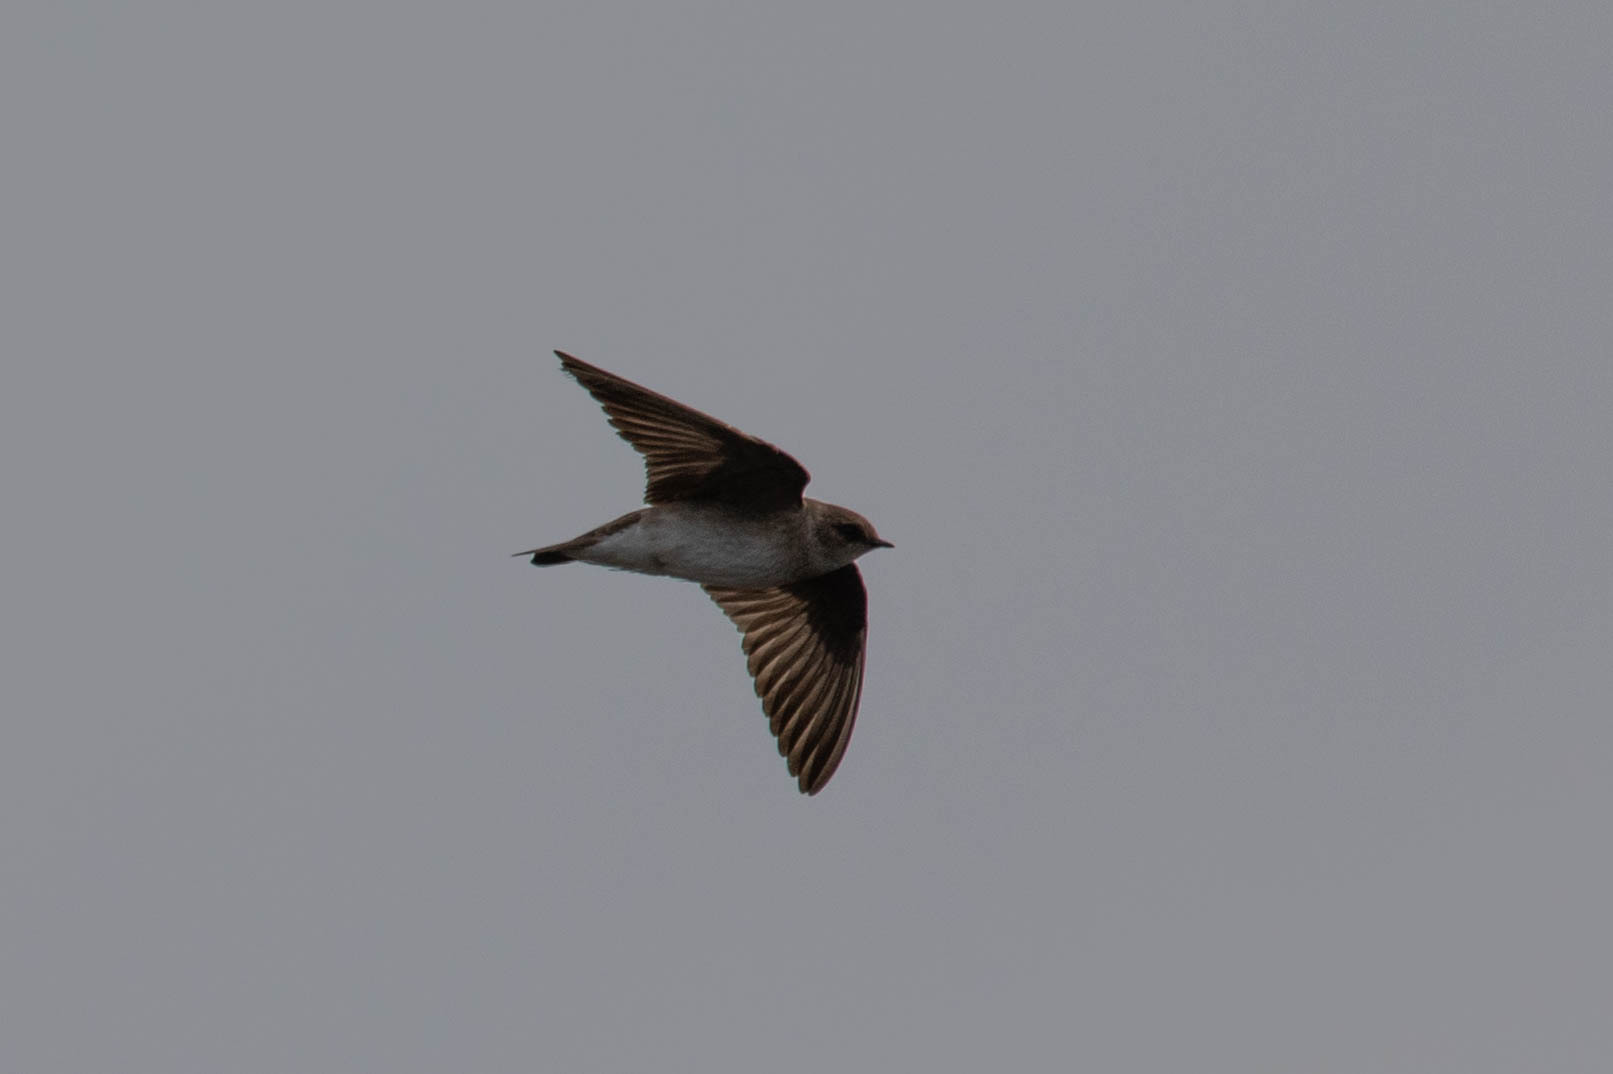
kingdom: Animalia
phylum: Chordata
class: Aves
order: Passeriformes
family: Hirundinidae
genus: Stelgidopteryx
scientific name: Stelgidopteryx serripennis
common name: Northern rough-winged swallow
